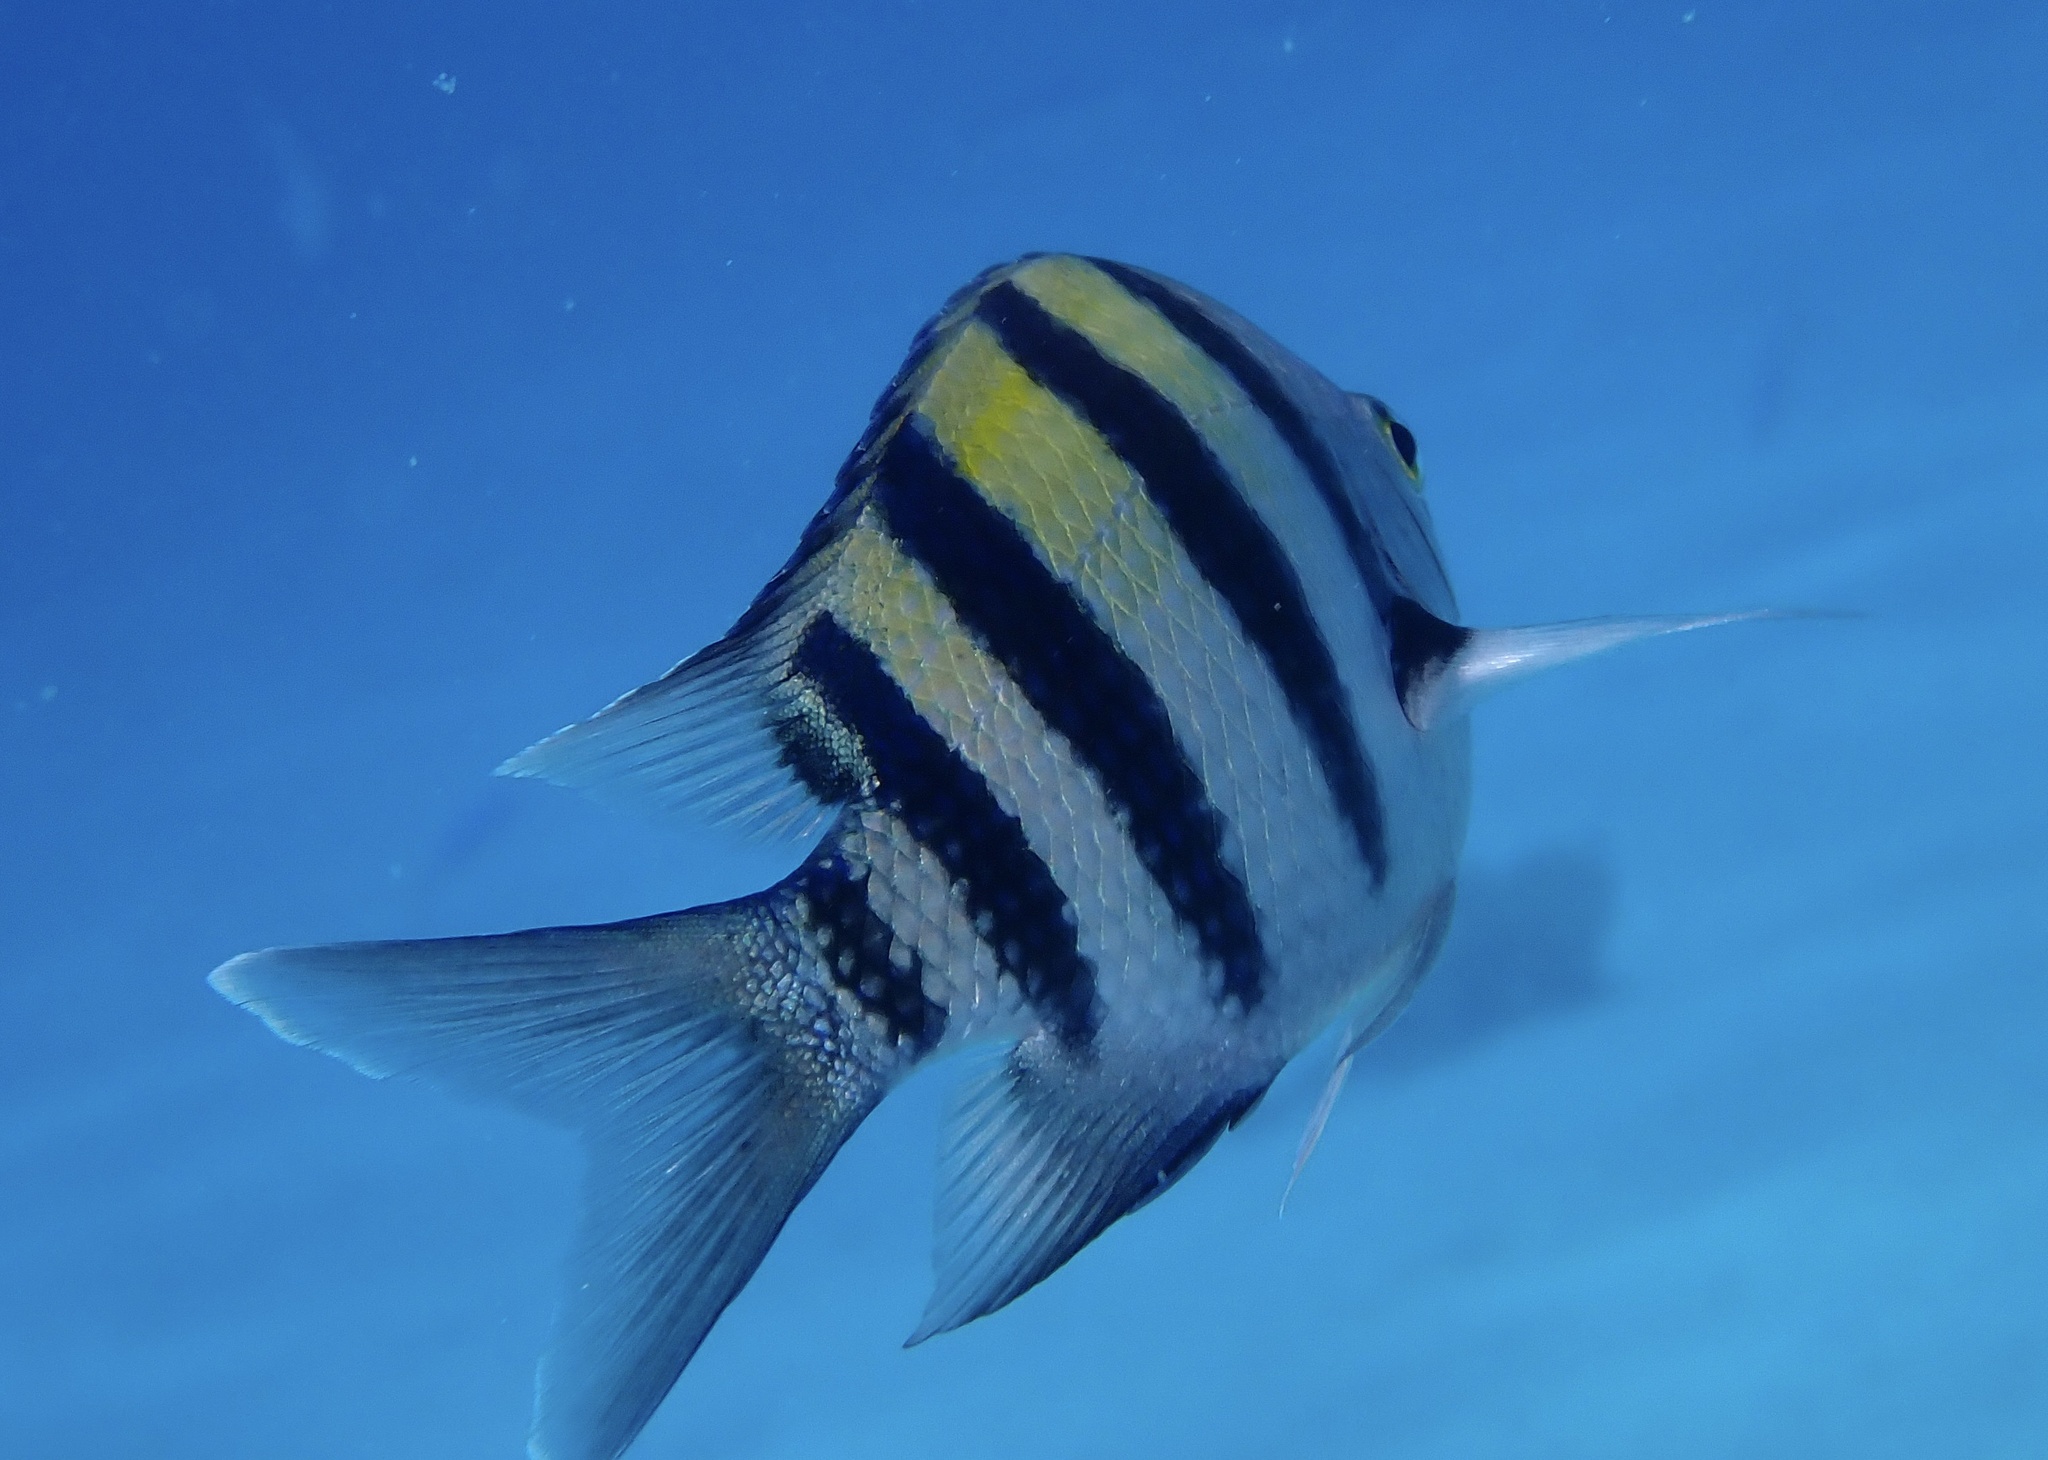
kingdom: Animalia
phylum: Chordata
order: Perciformes
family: Pomacentridae
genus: Abudefduf
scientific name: Abudefduf vaigiensis
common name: Indo-pacific sergeant
